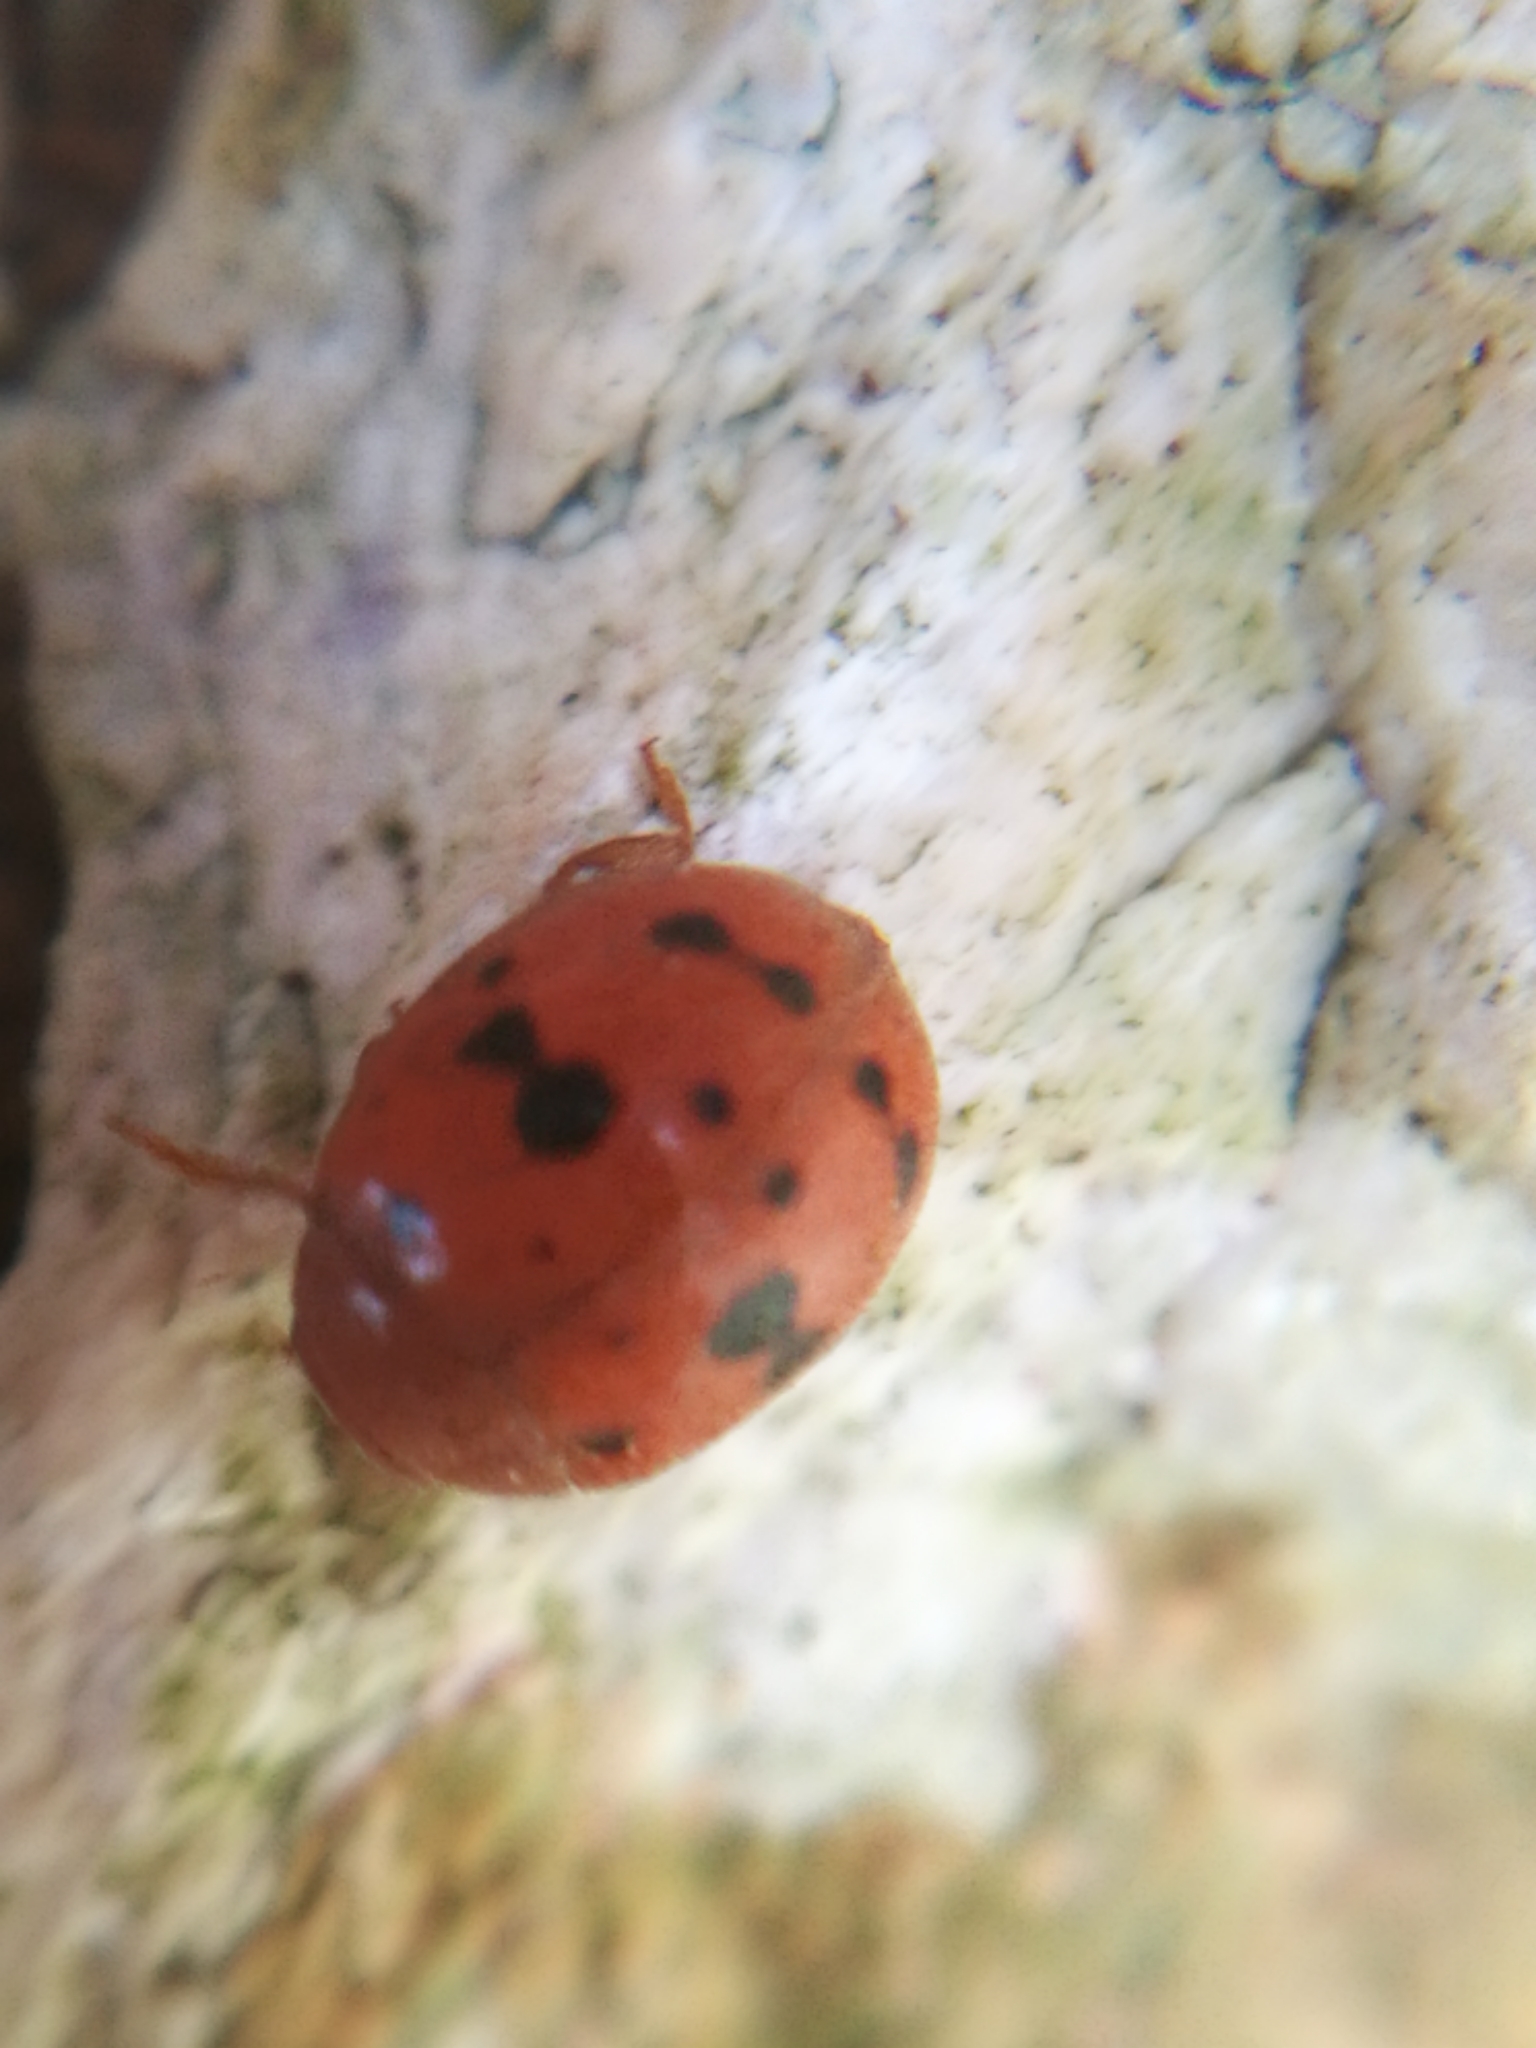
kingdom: Animalia
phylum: Arthropoda
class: Insecta
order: Coleoptera
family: Coccinellidae
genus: Subcoccinella
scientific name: Subcoccinella vigintiquatuorpunctata
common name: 24-spot ladybird
